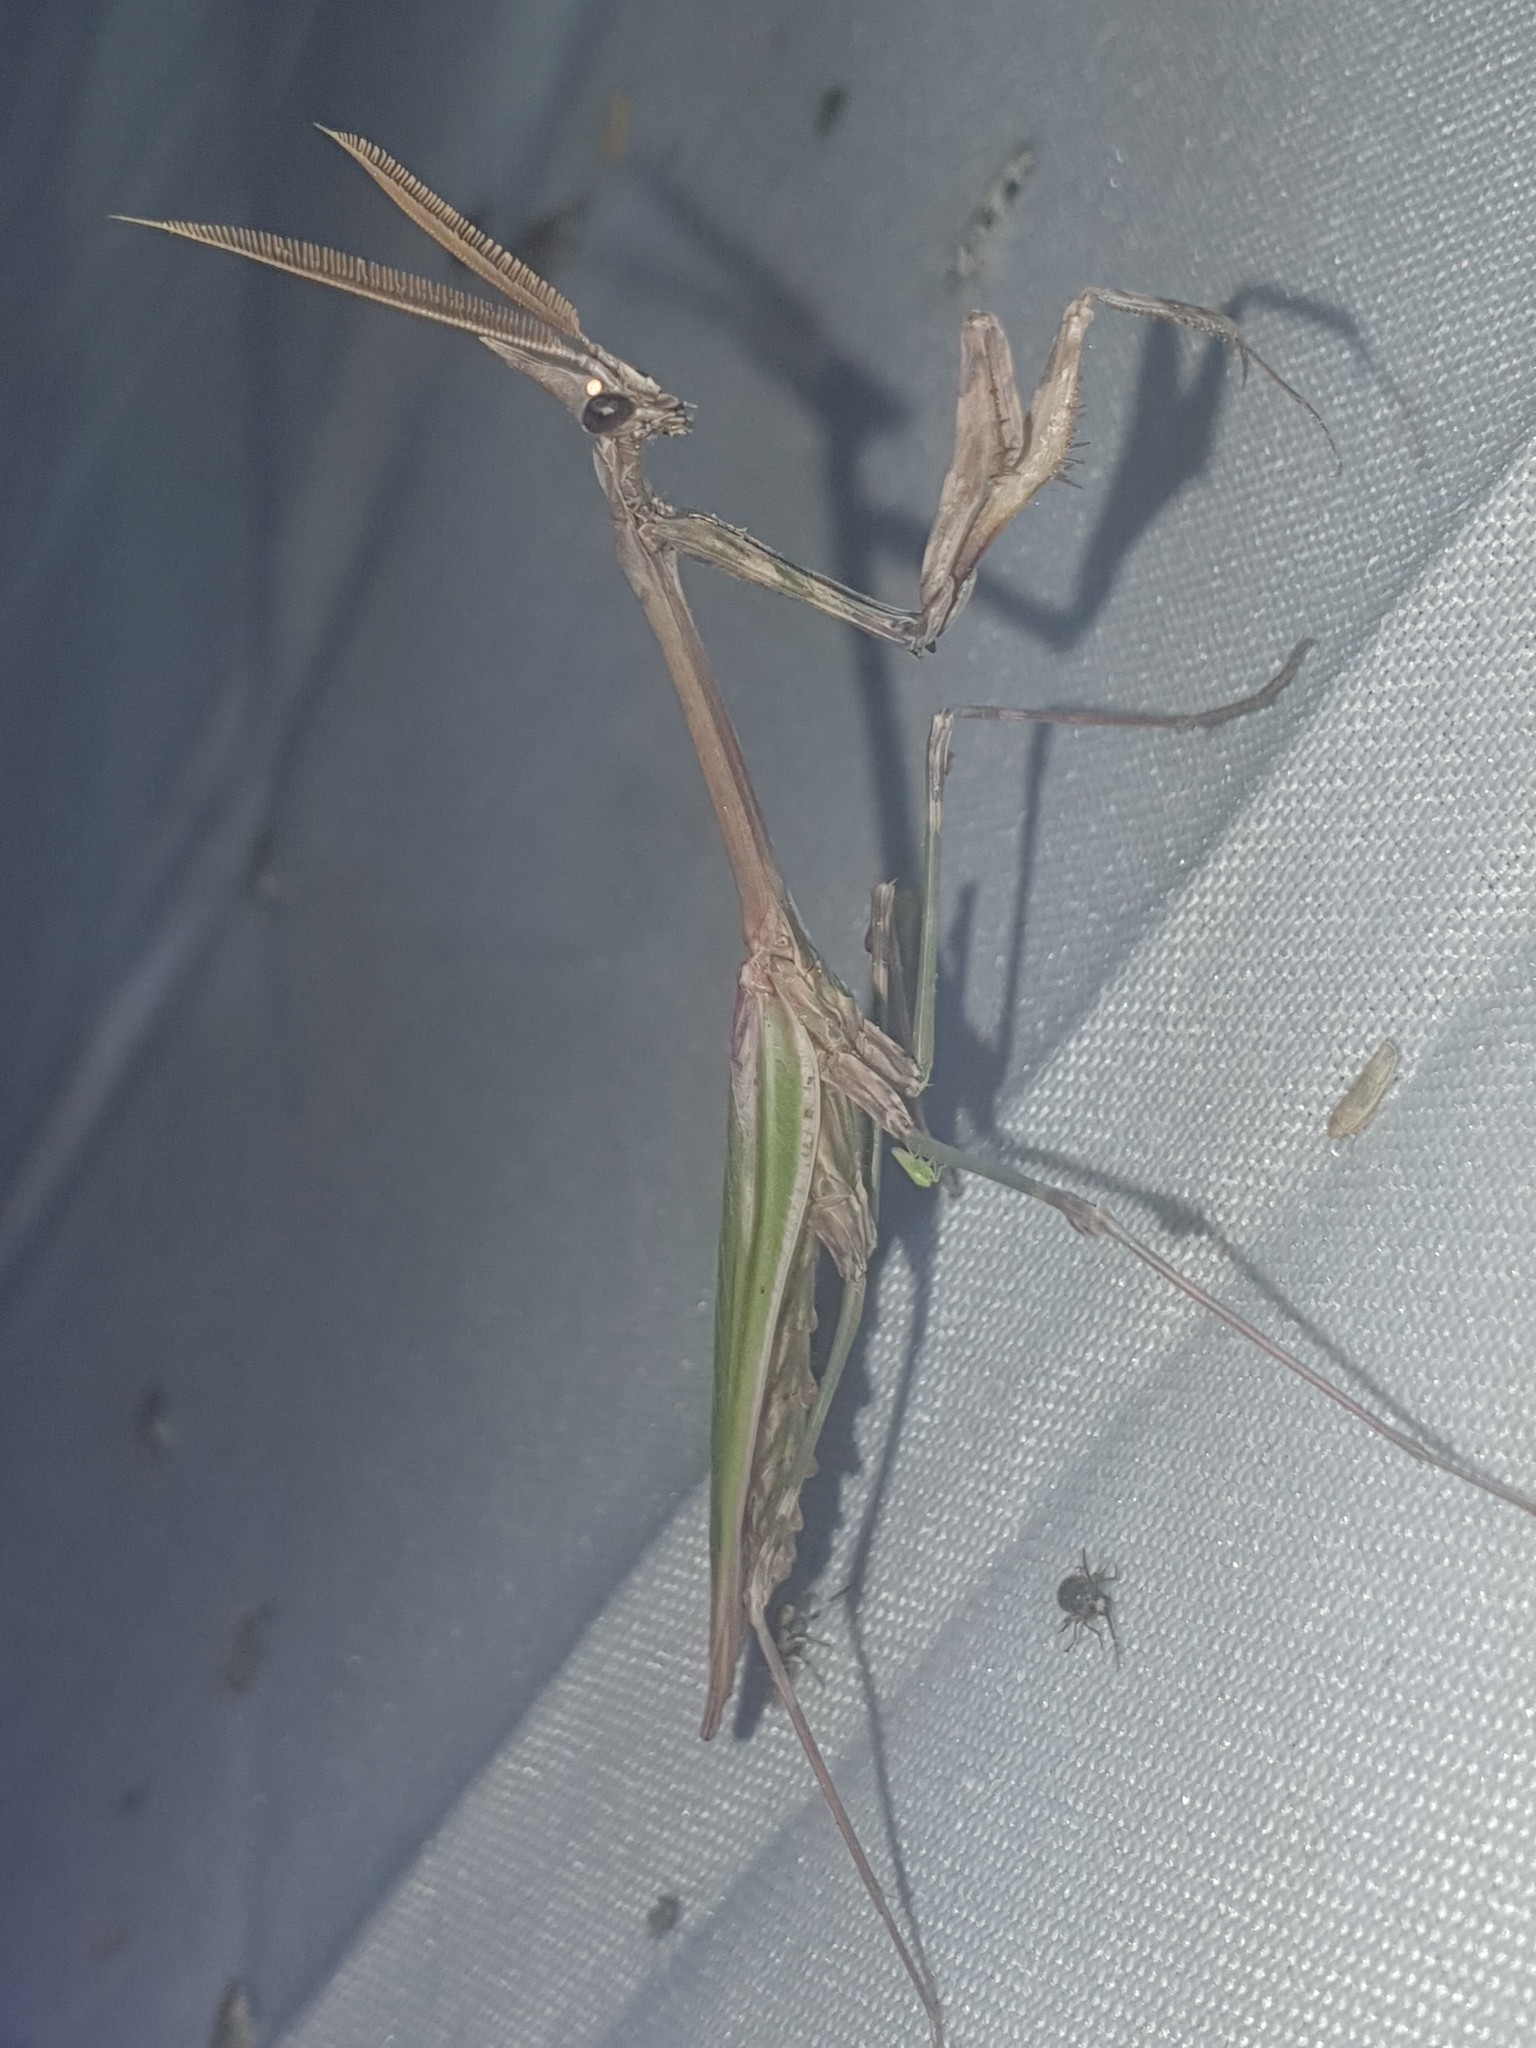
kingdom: Animalia
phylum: Arthropoda
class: Insecta
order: Mantodea
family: Empusidae
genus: Empusa
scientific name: Empusa pennata
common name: Conehead mantis
